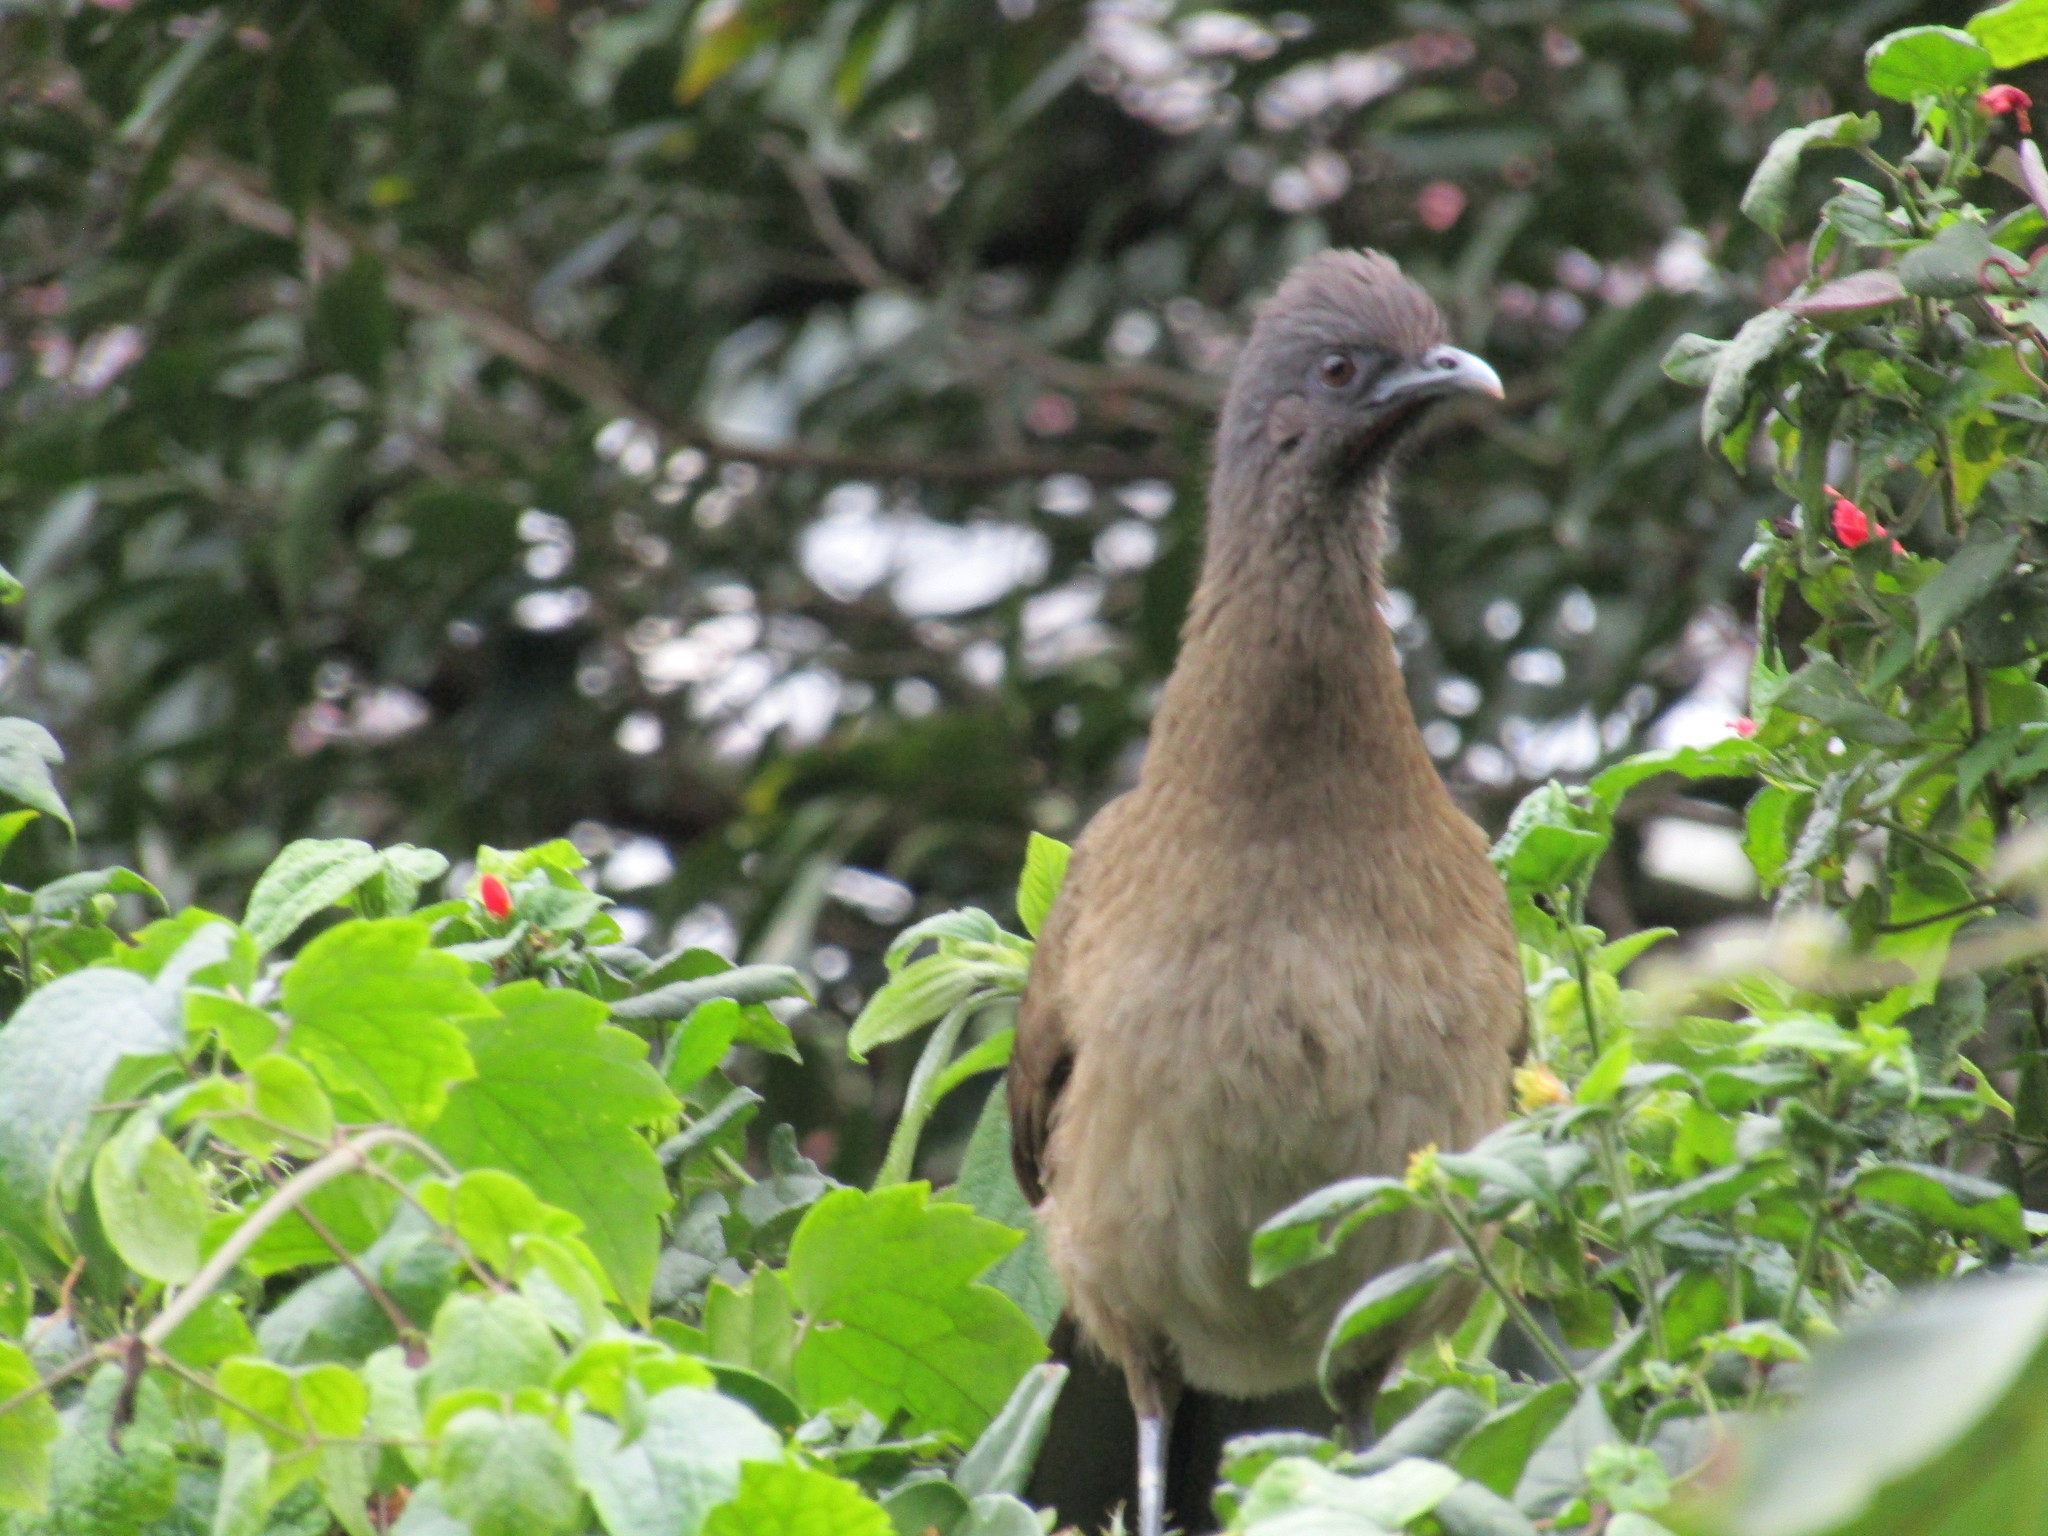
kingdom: Animalia
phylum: Chordata
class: Aves
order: Galliformes
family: Cracidae
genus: Ortalis
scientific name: Ortalis vetula
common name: Plain chachalaca
